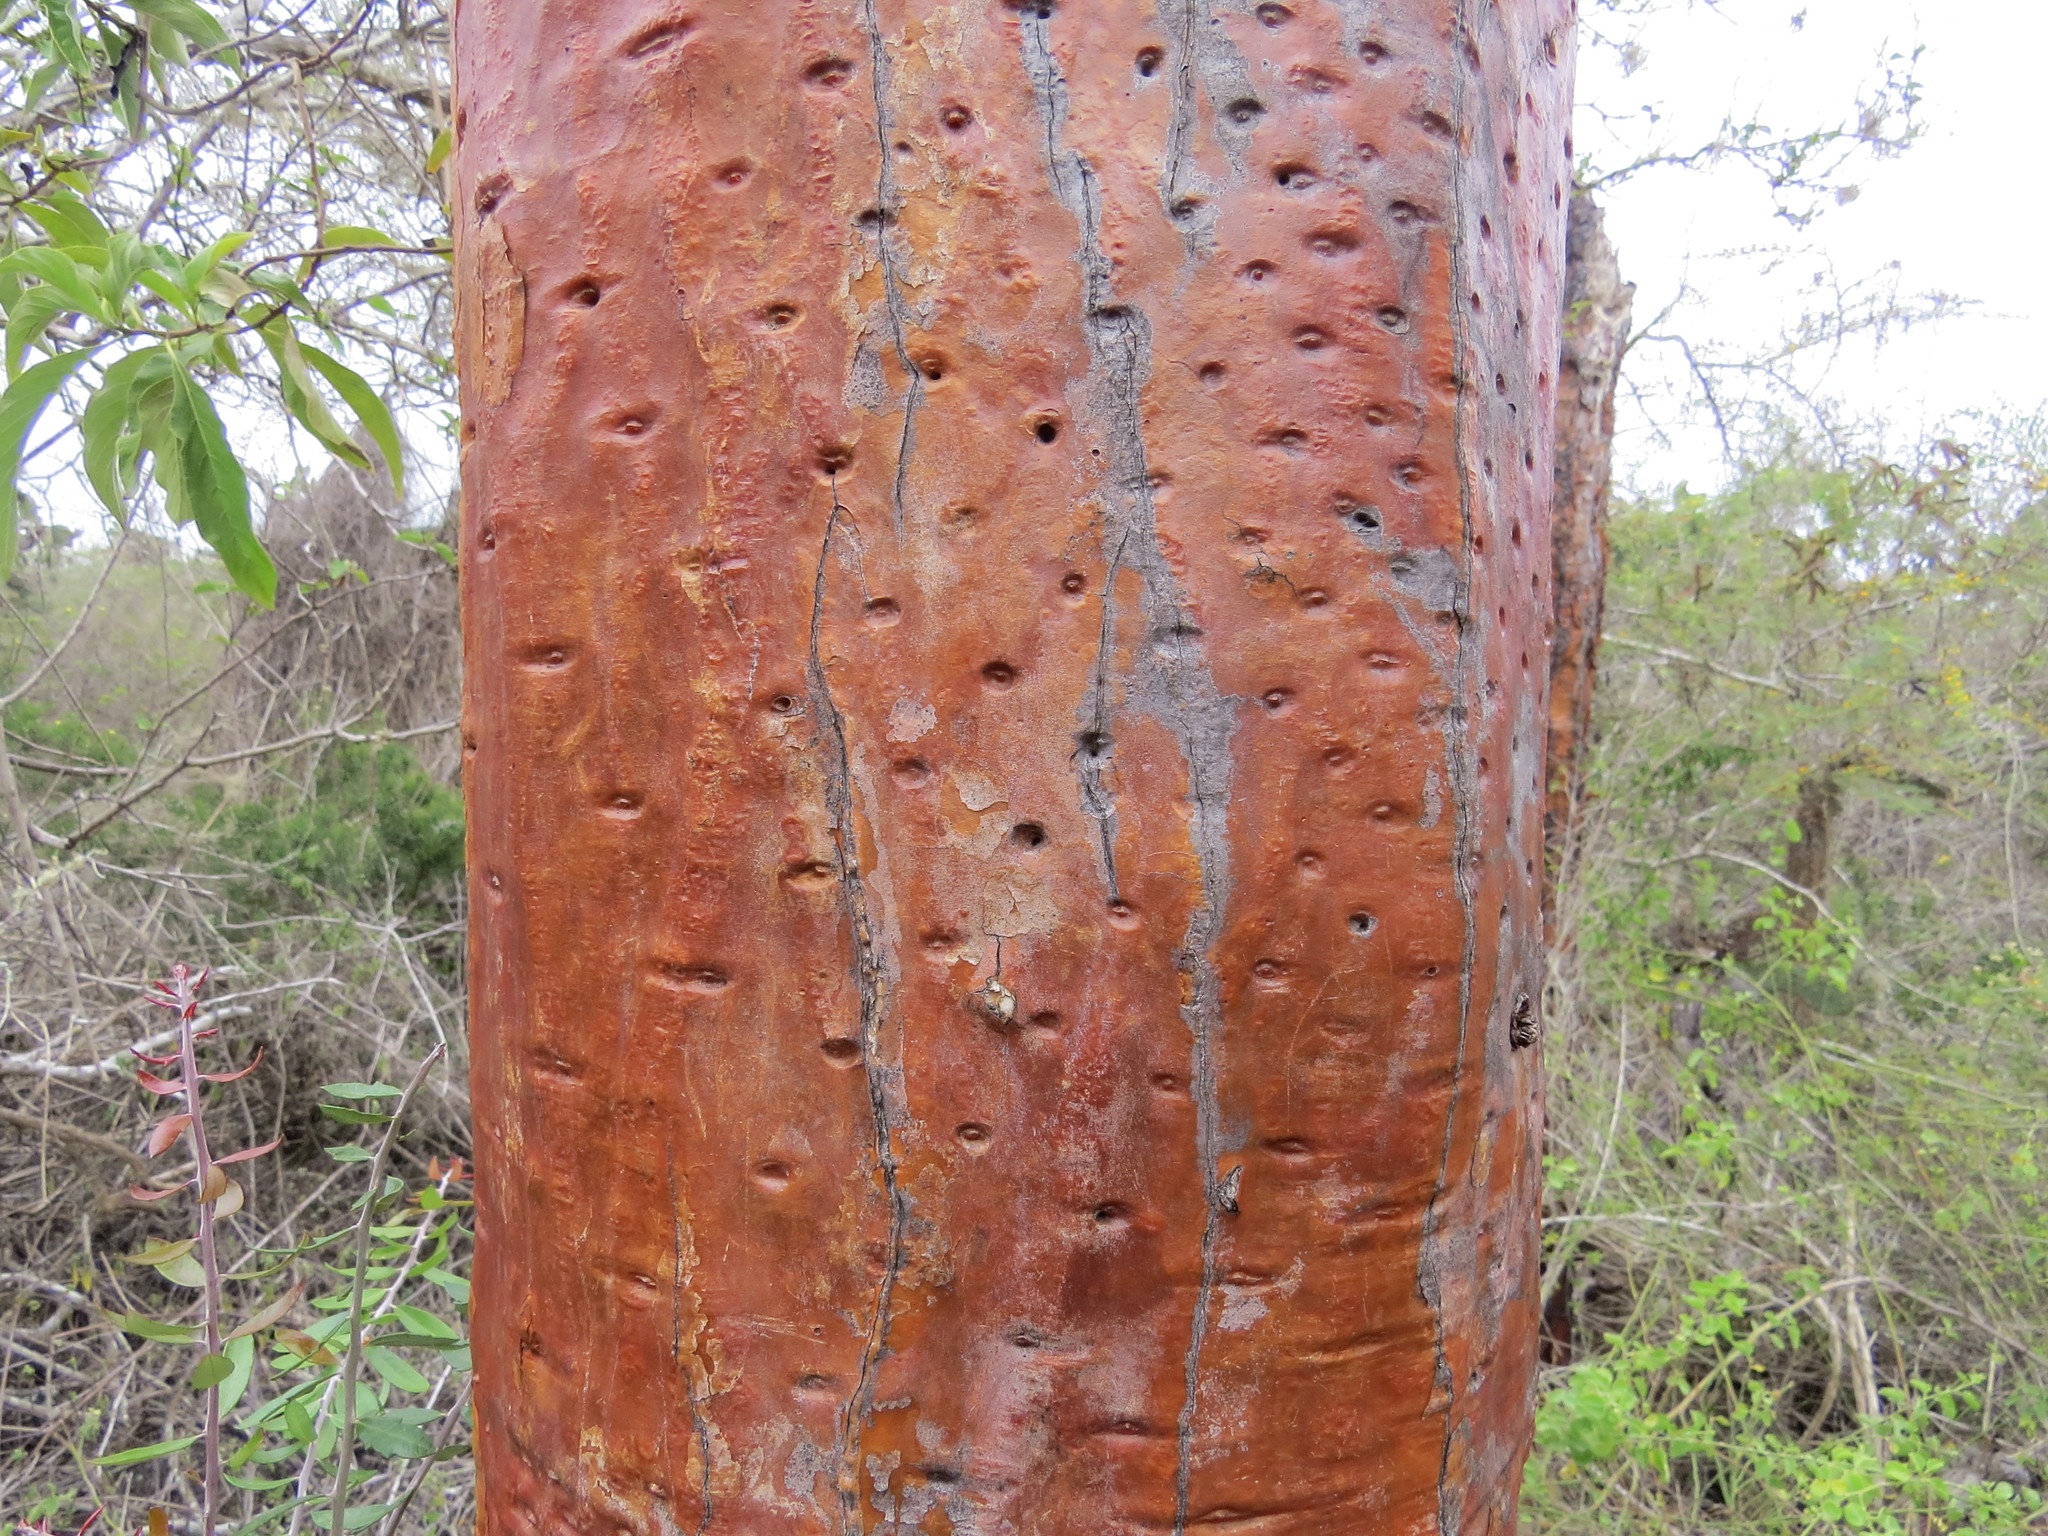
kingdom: Plantae
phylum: Tracheophyta
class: Magnoliopsida
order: Caryophyllales
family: Cactaceae
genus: Opuntia
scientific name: Opuntia galapageia
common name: Galápagos prickly pear
